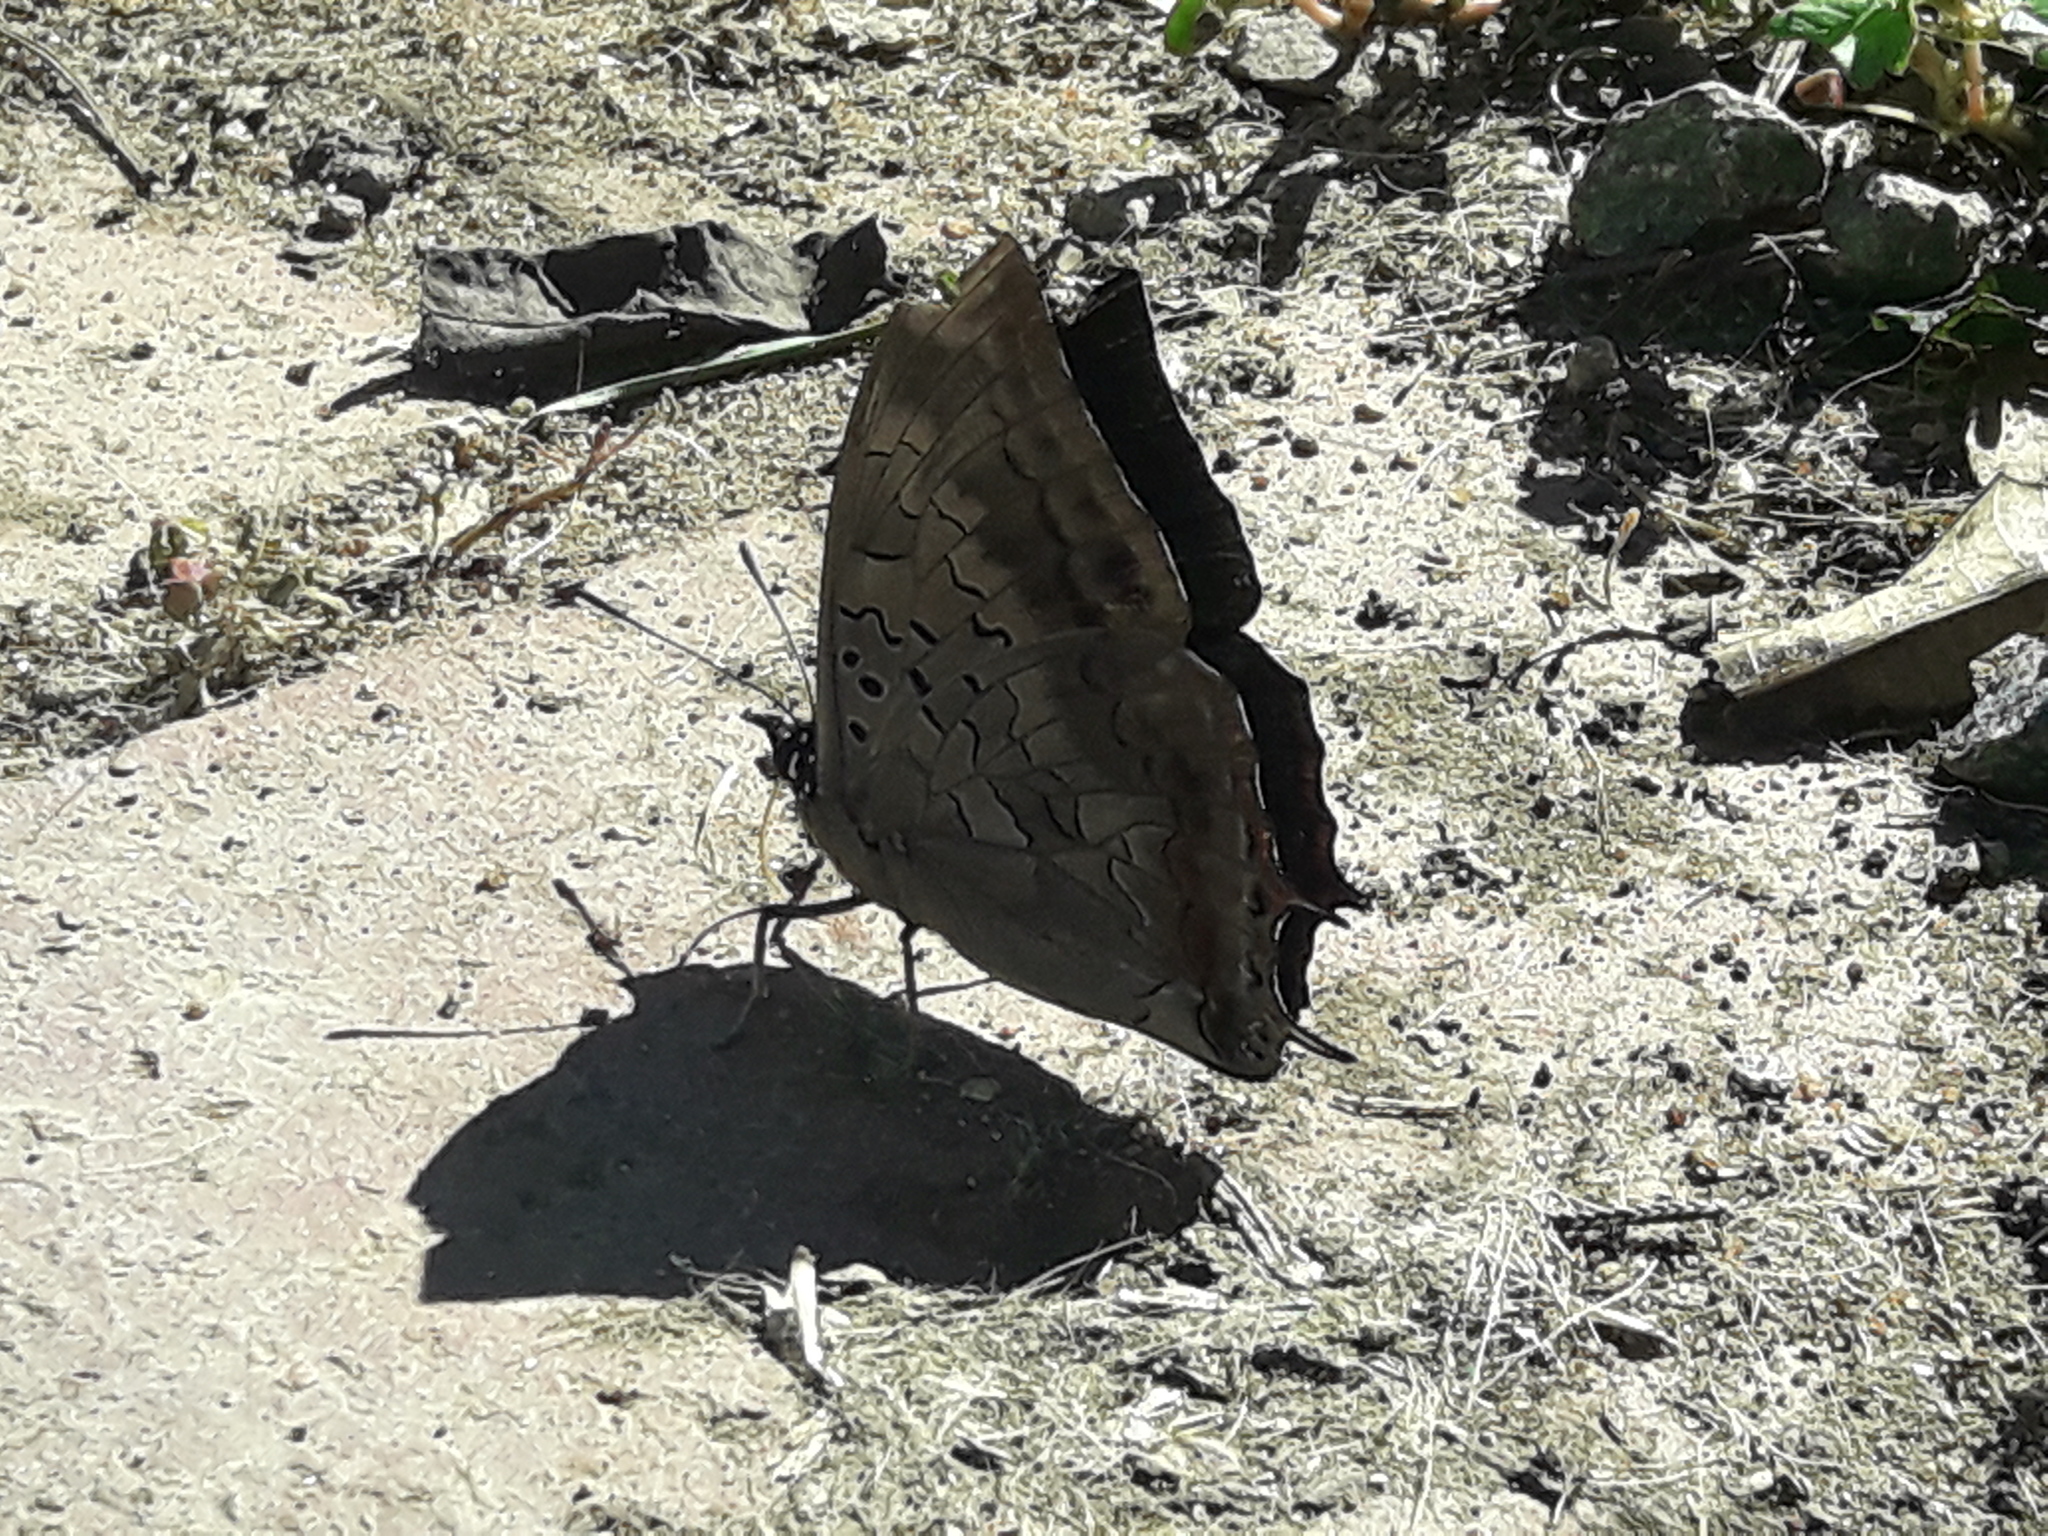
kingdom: Animalia
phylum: Arthropoda
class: Insecta
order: Lepidoptera
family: Nymphalidae
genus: Charaxes
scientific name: Charaxes ethalion
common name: Satyr charaxes
